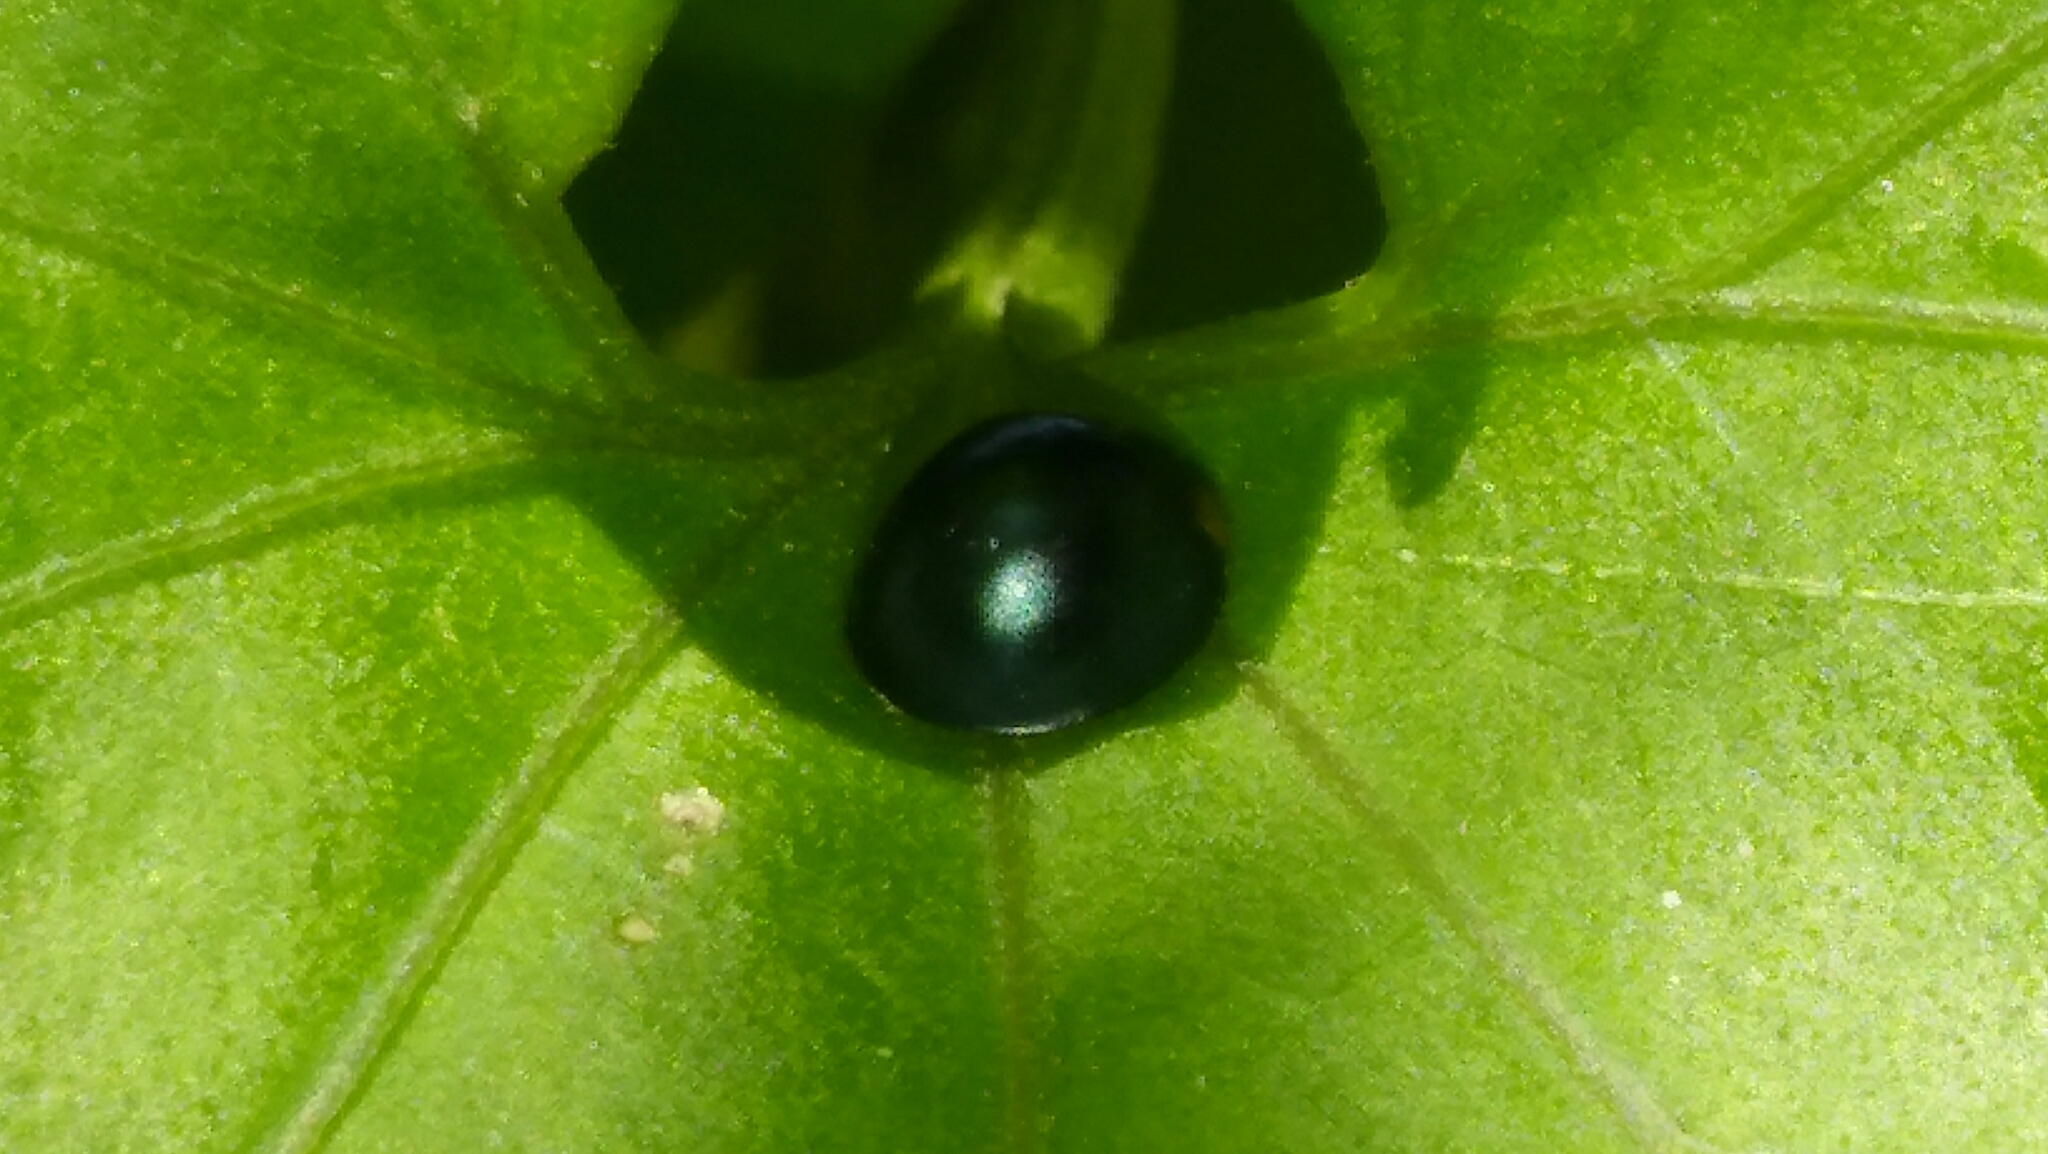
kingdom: Animalia
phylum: Arthropoda
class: Insecta
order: Coleoptera
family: Coccinellidae
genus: Curinus
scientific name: Curinus coeruleus
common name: Ladybird beetle
